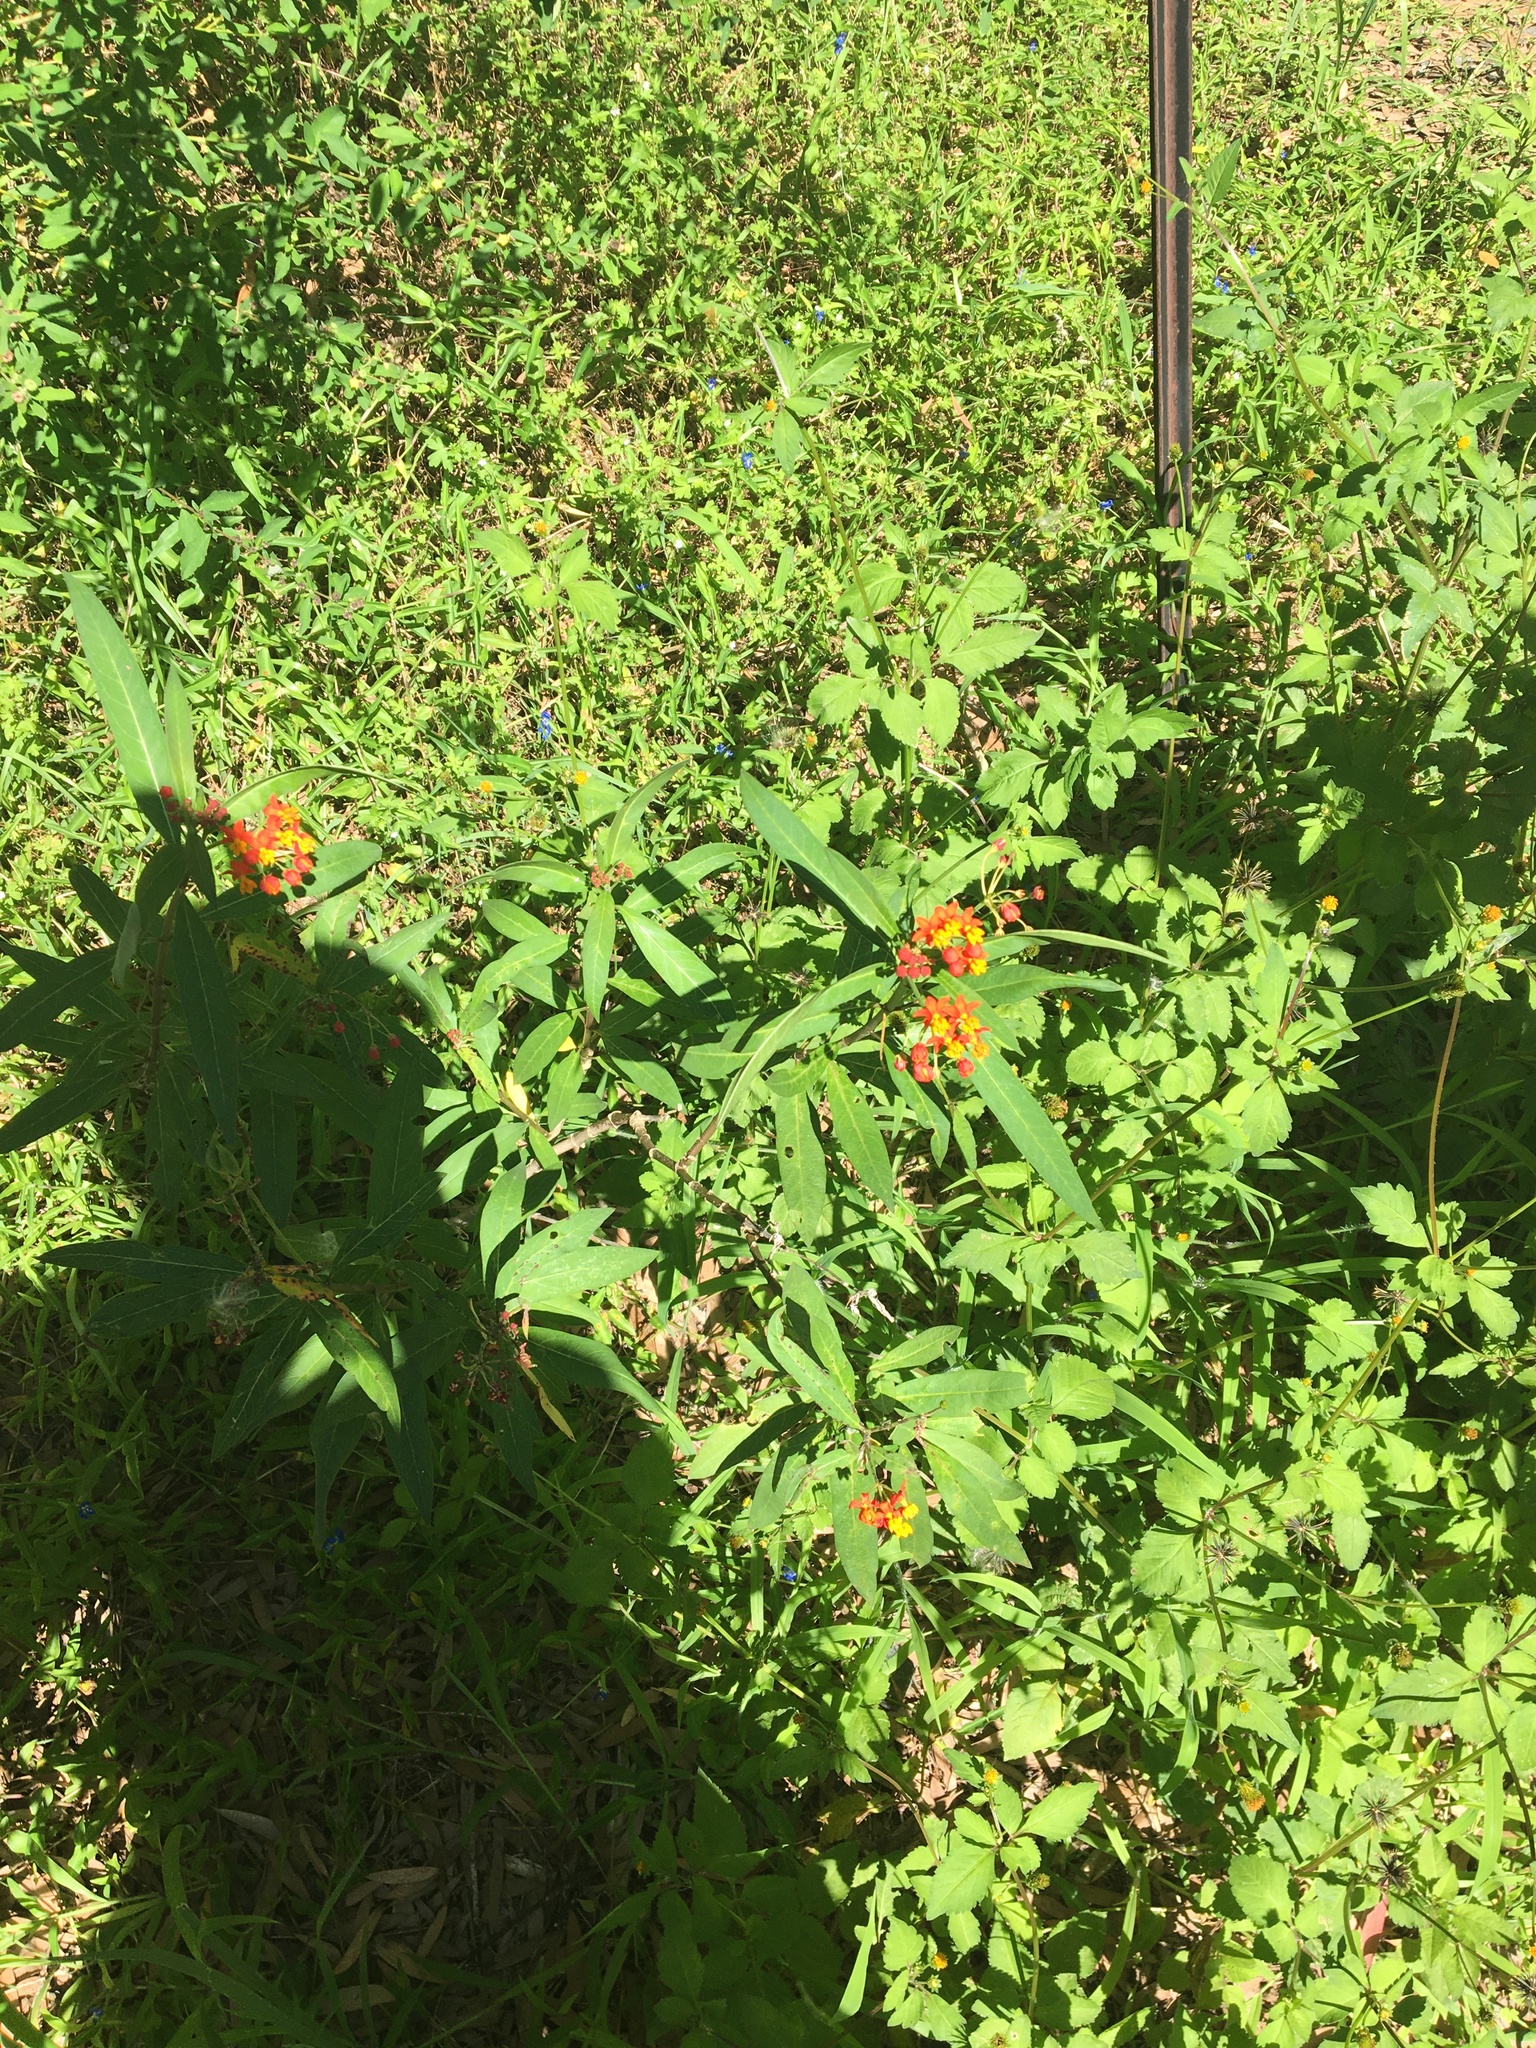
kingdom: Plantae
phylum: Tracheophyta
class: Magnoliopsida
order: Gentianales
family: Apocynaceae
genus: Asclepias
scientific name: Asclepias curassavica
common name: Bloodflower
